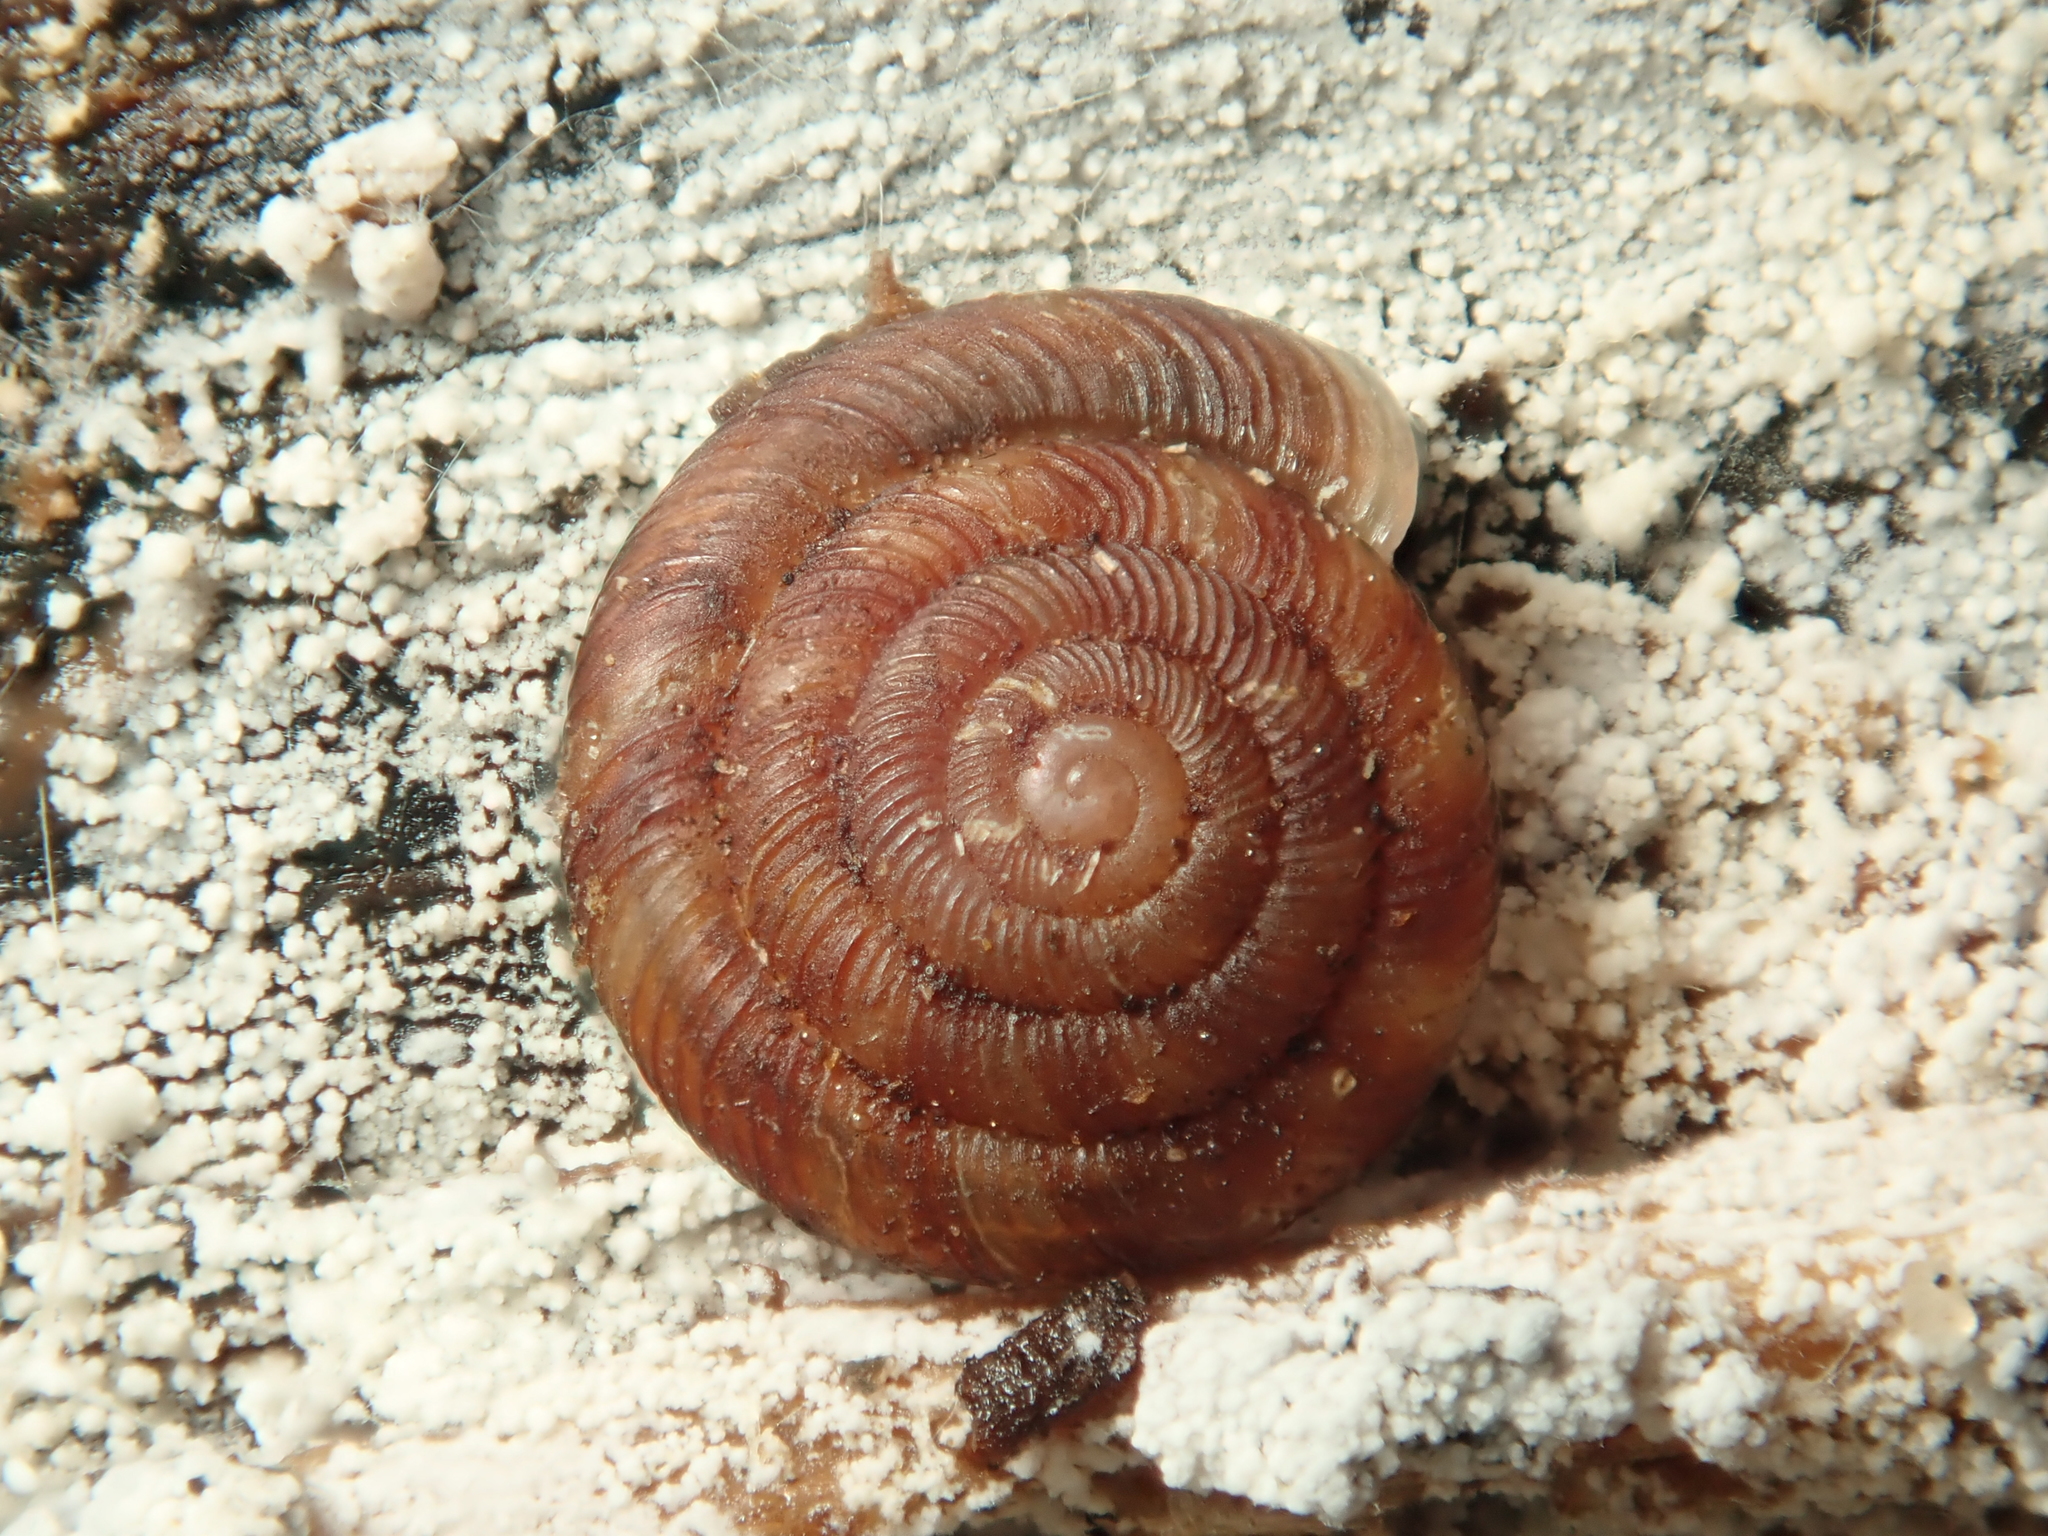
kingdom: Animalia
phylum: Mollusca
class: Gastropoda
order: Stylommatophora
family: Discidae
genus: Discus
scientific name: Discus rotundatus
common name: Rounded snail
